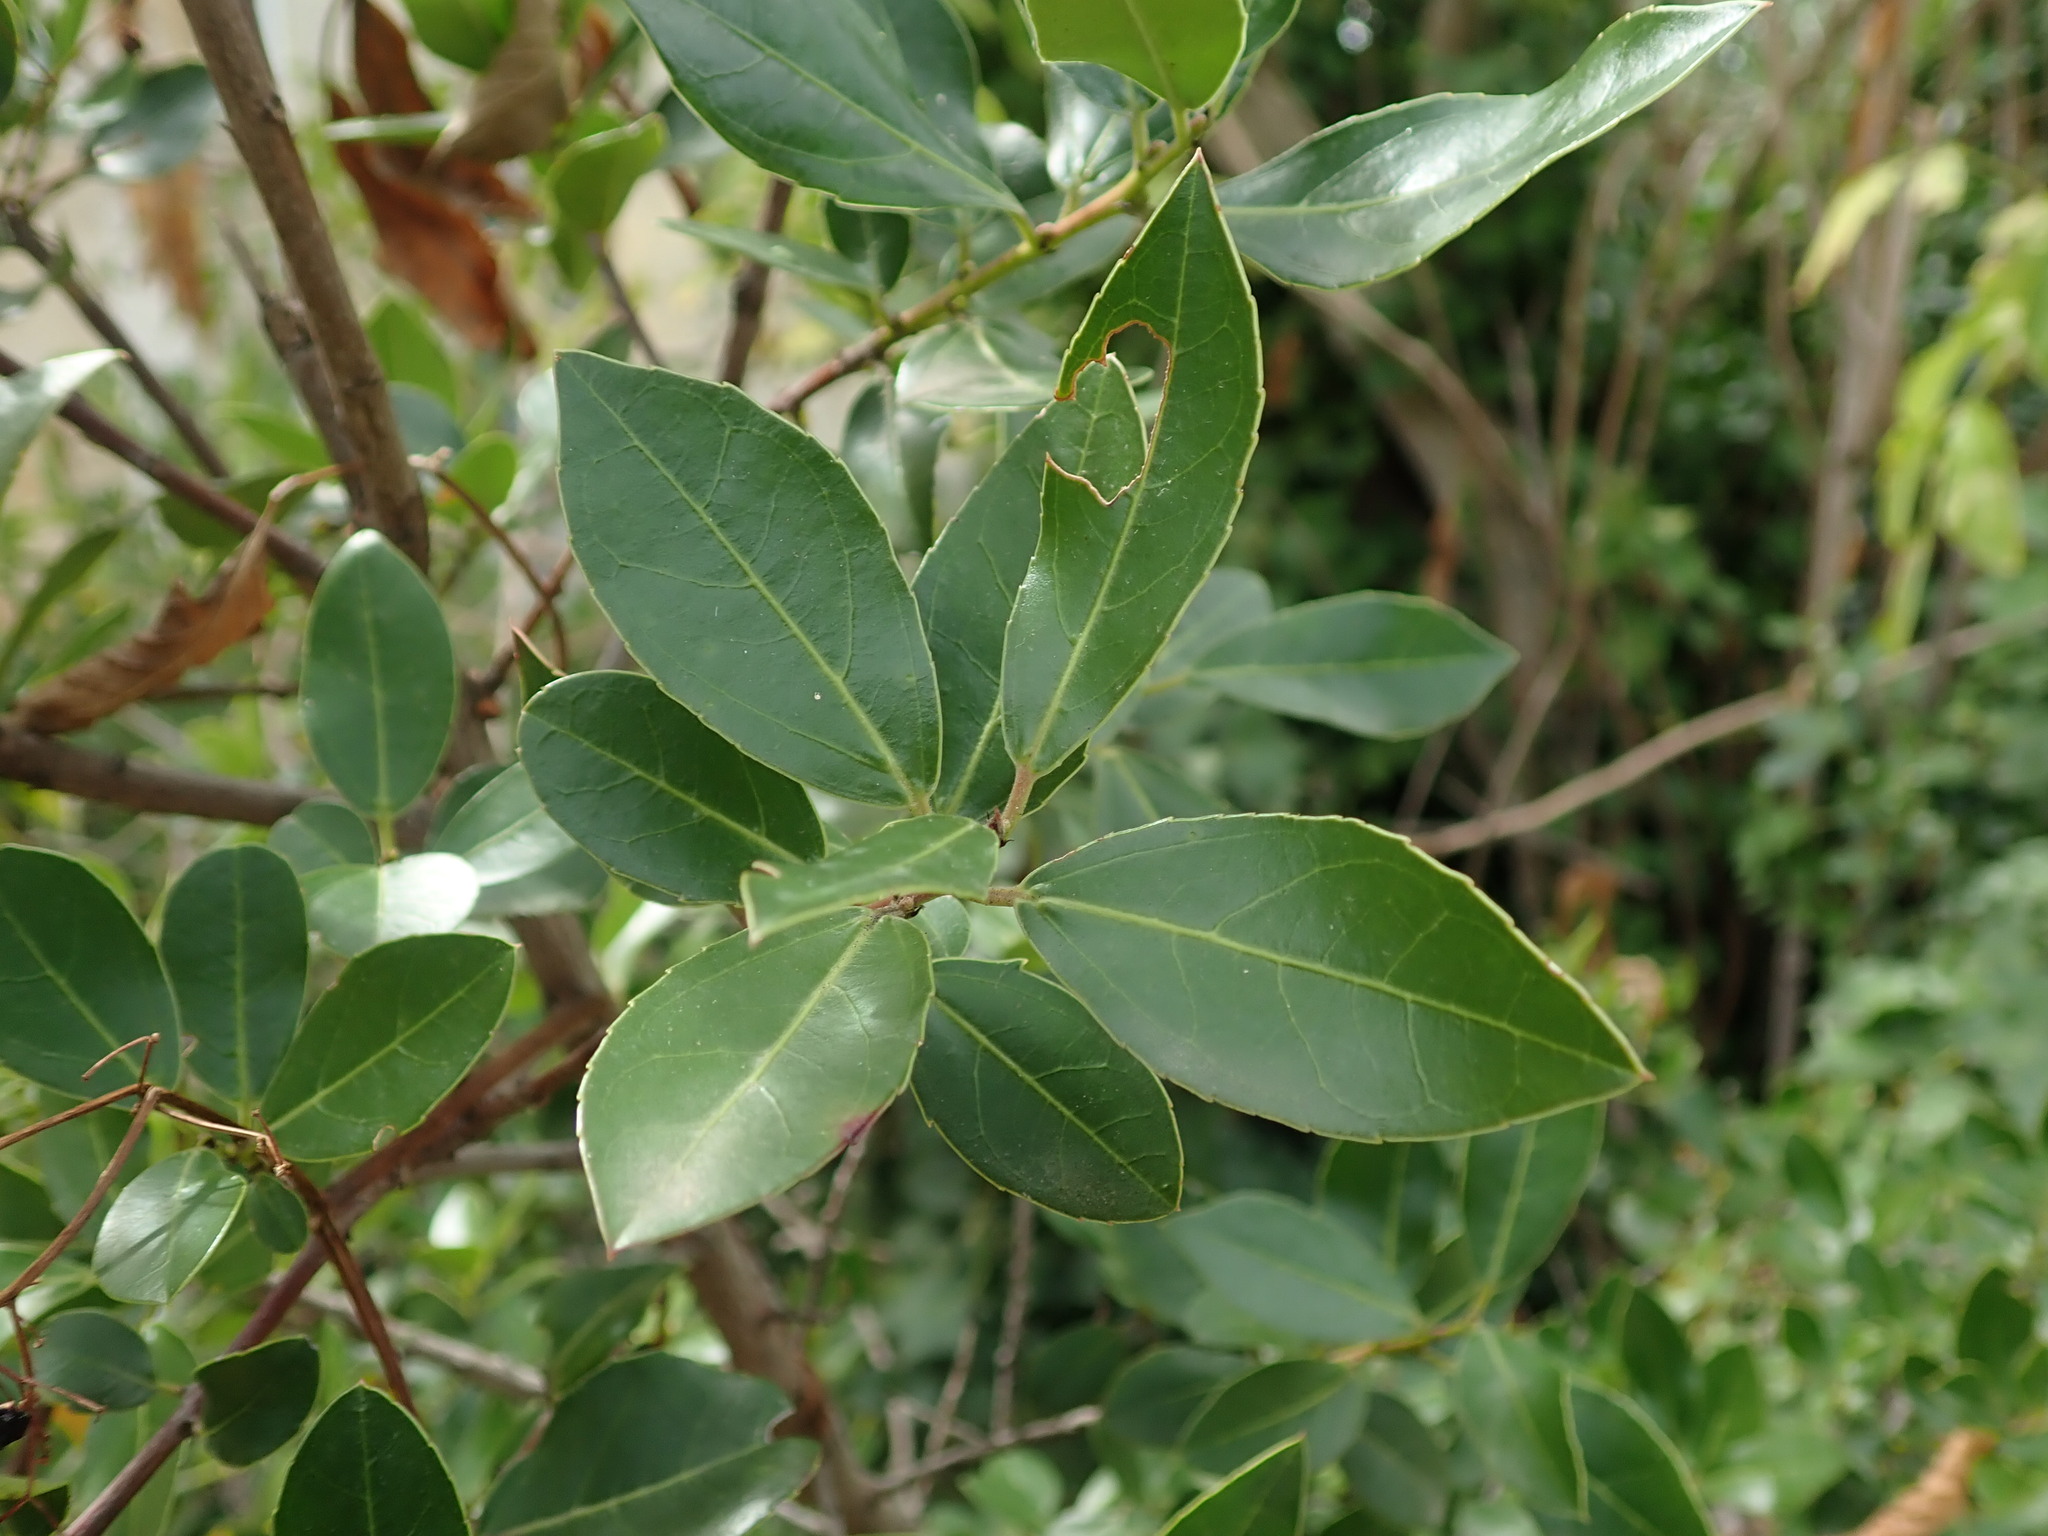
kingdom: Plantae
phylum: Tracheophyta
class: Magnoliopsida
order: Rosales
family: Rhamnaceae
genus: Rhamnus
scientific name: Rhamnus alaternus
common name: Mediterranean buckthorn
